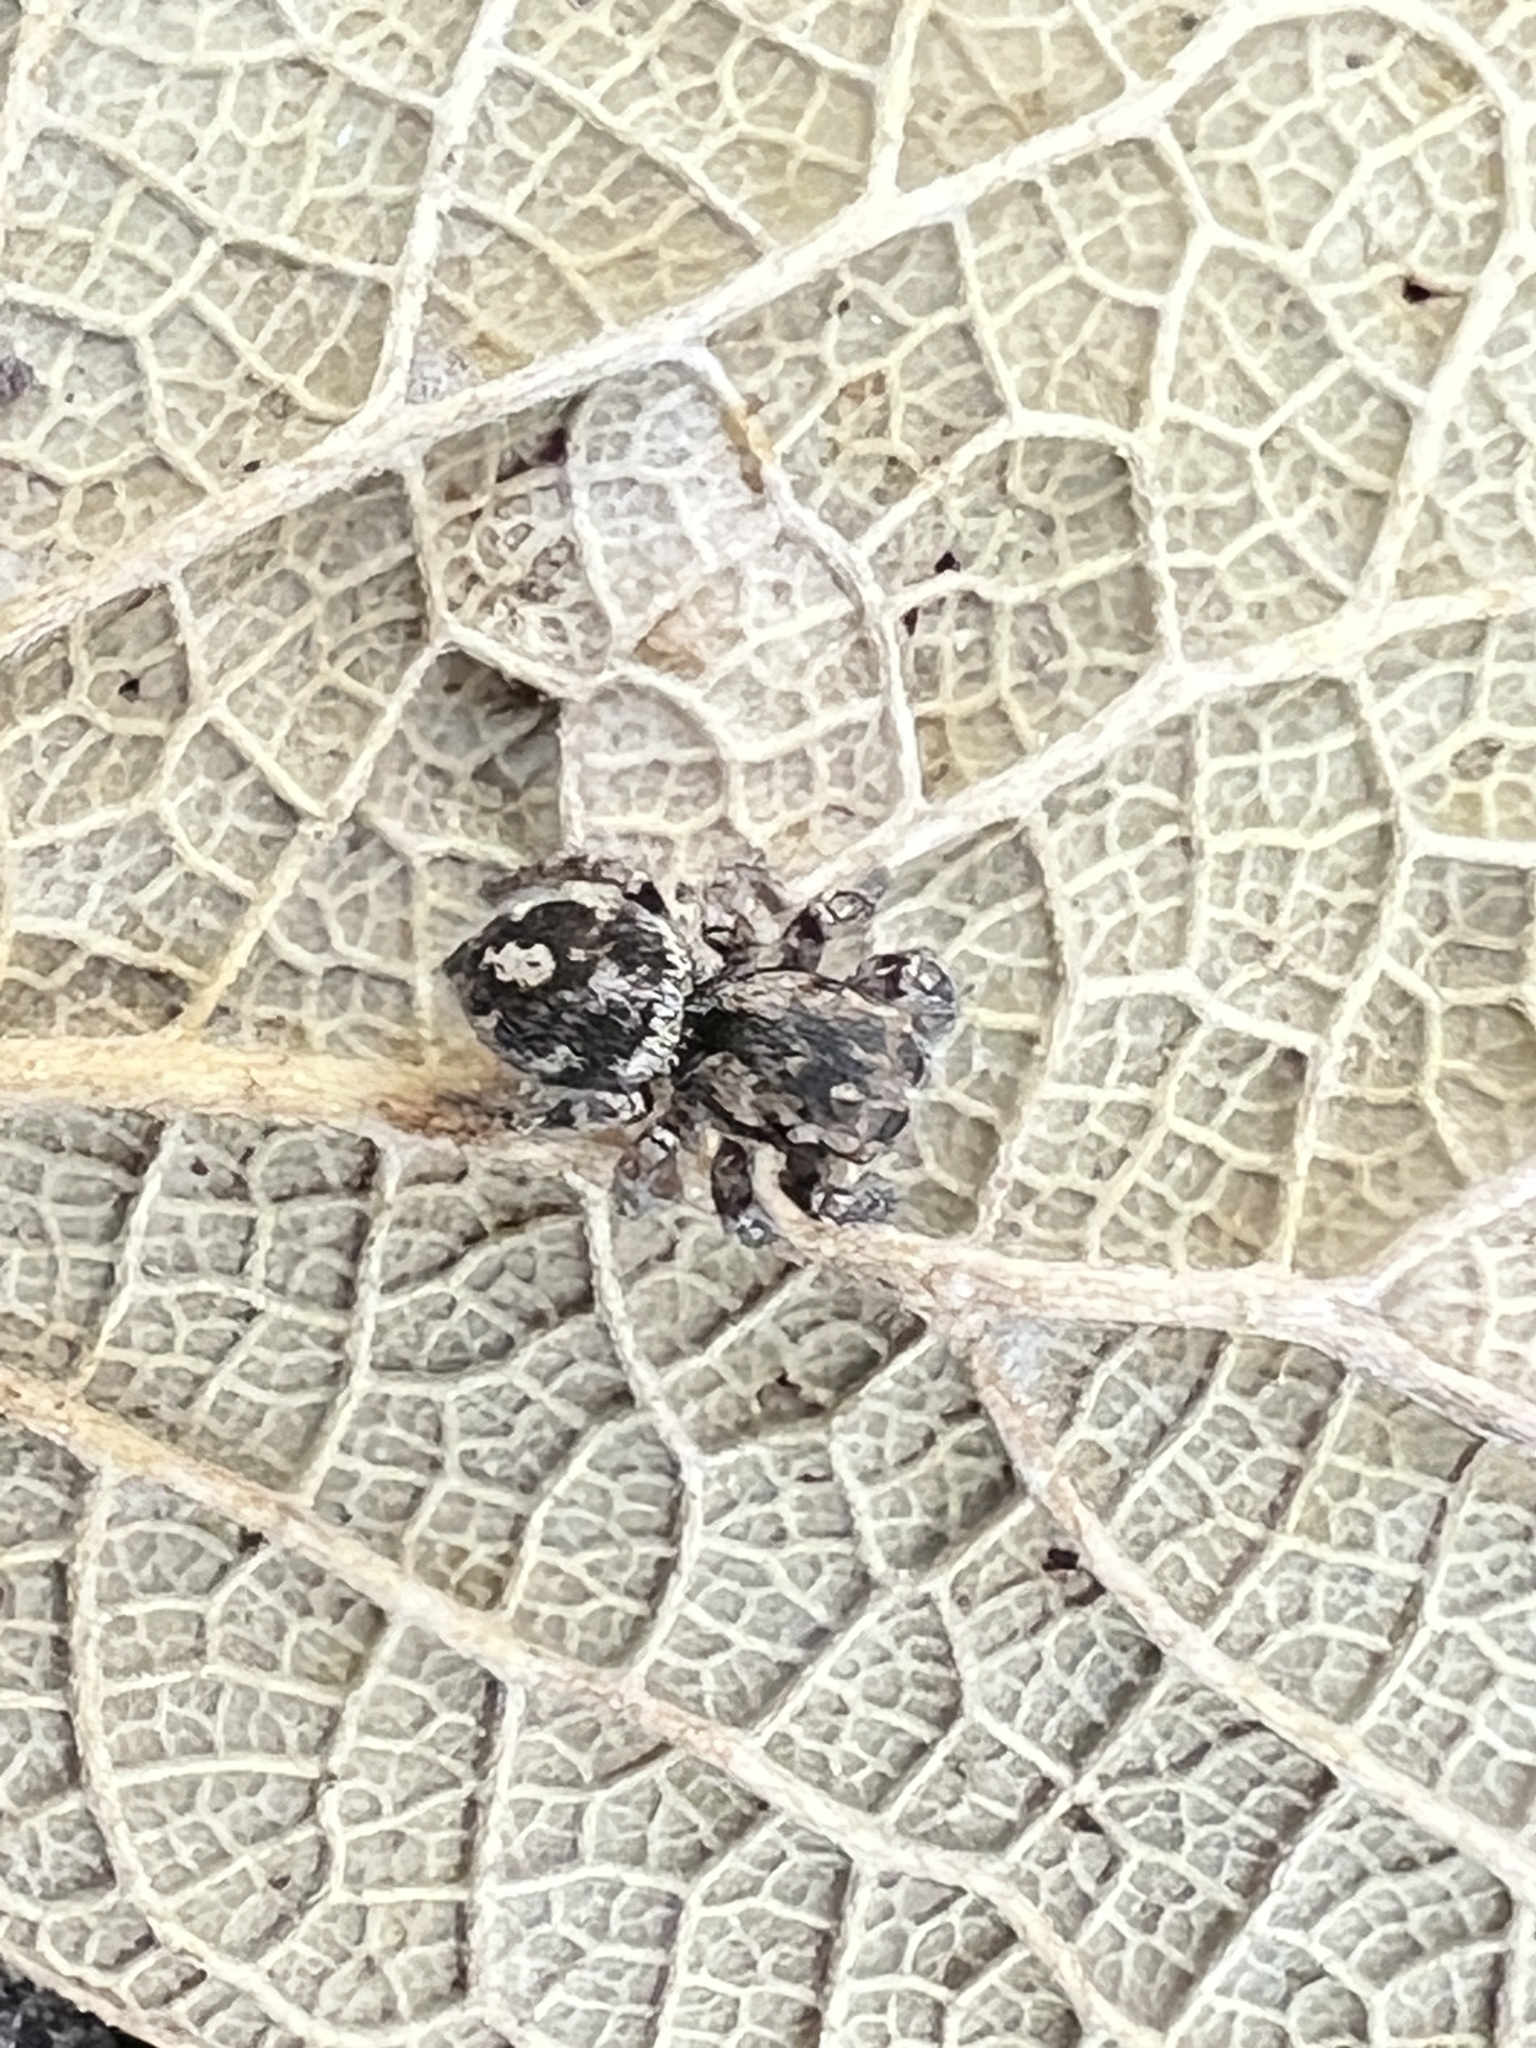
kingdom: Animalia
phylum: Arthropoda
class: Arachnida
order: Araneae
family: Salticidae
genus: Habronattus
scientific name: Habronattus fallax
